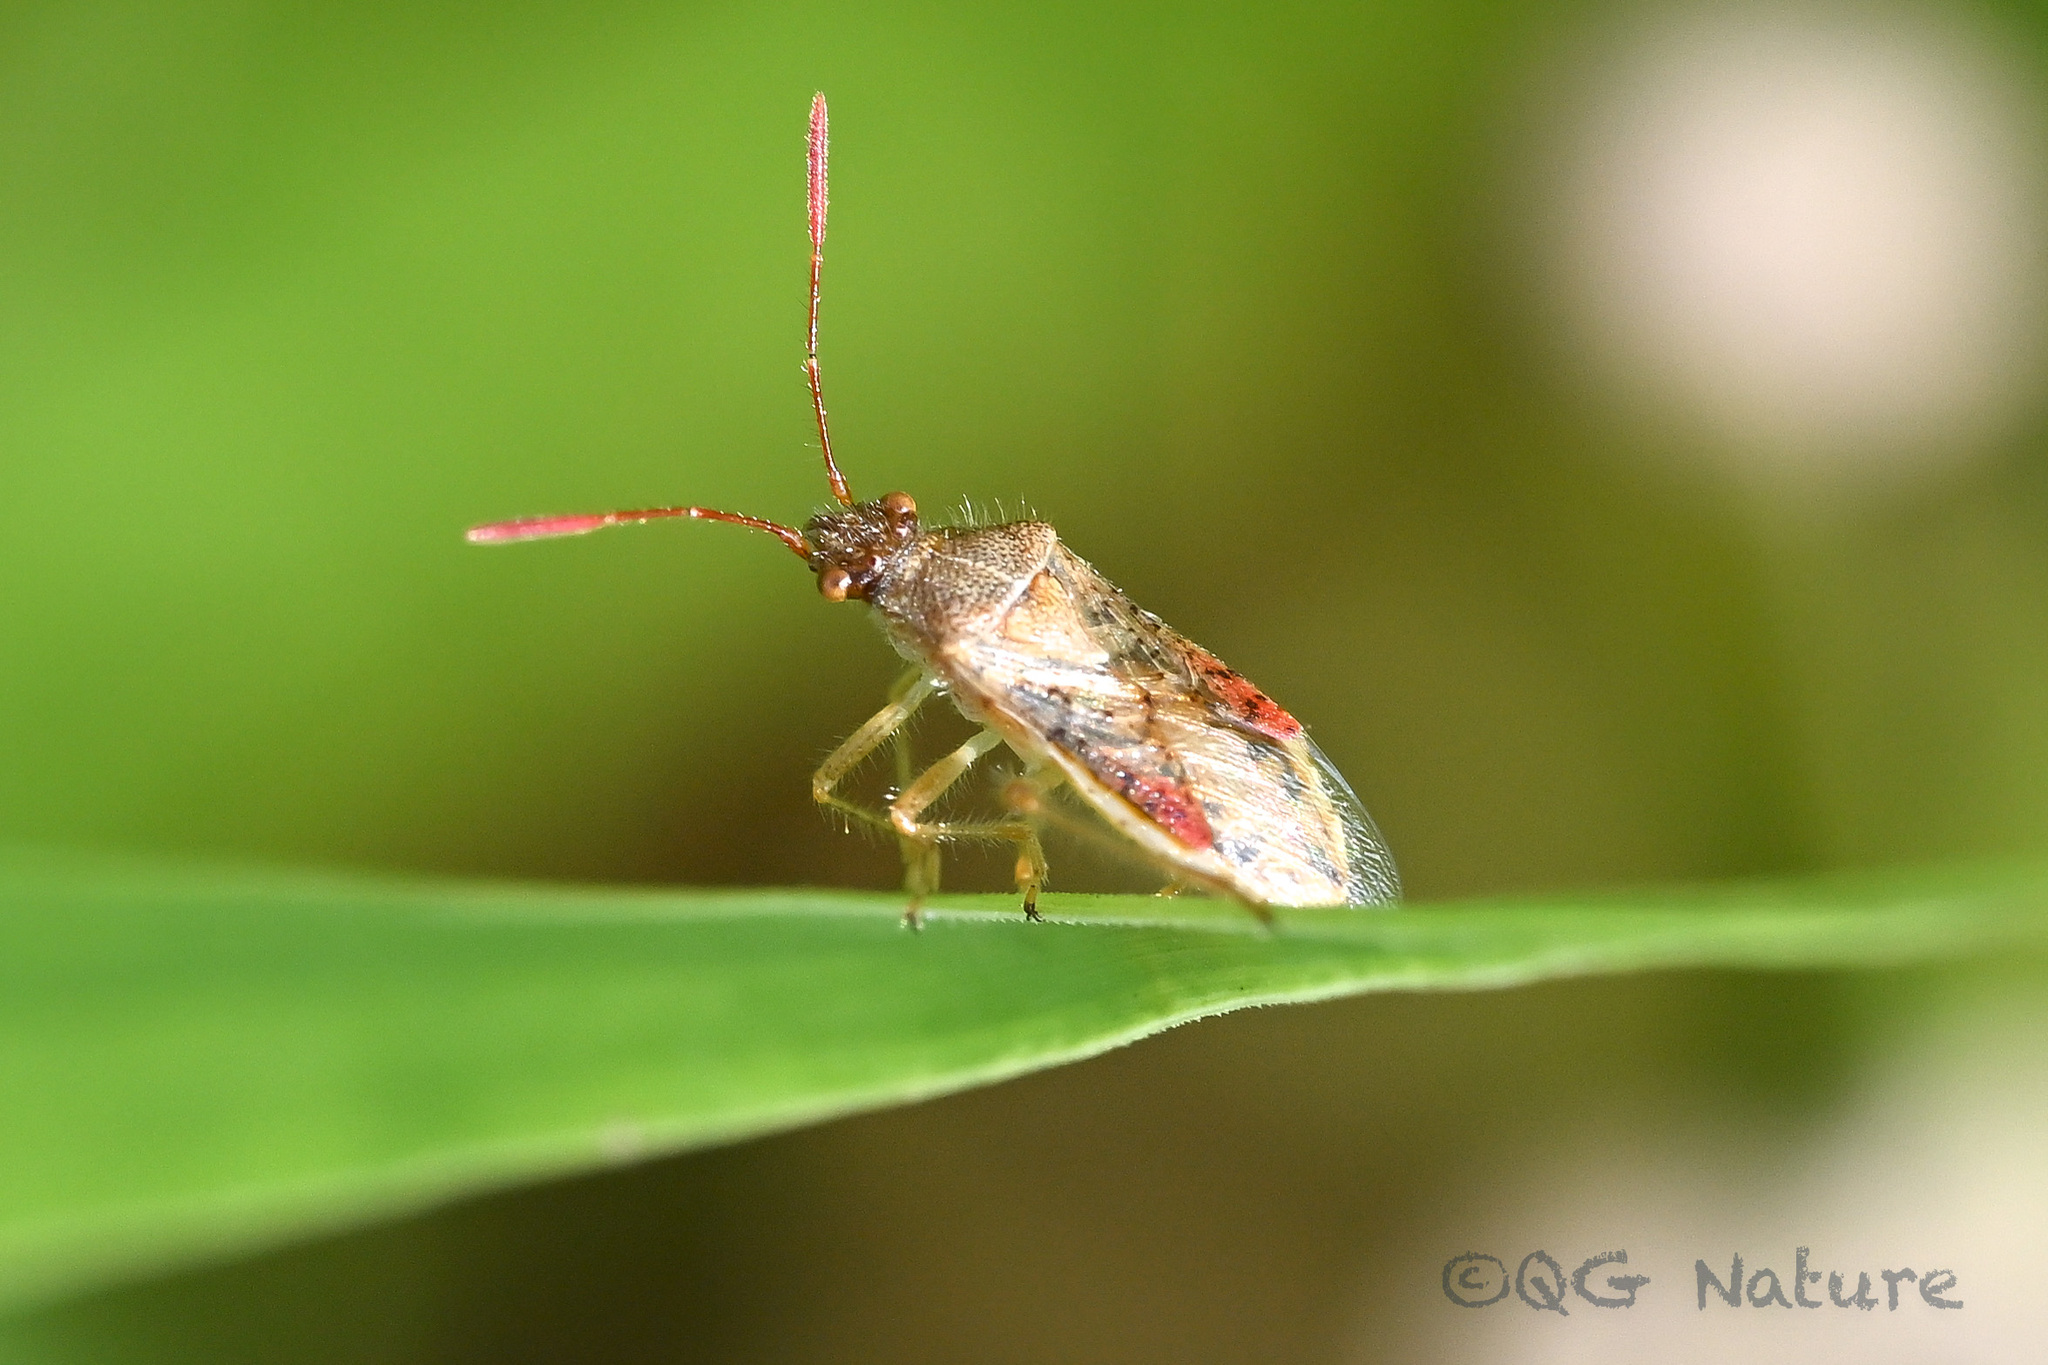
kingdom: Animalia
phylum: Arthropoda
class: Insecta
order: Hemiptera
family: Rhopalidae
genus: Rhopalus
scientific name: Rhopalus maculatus
